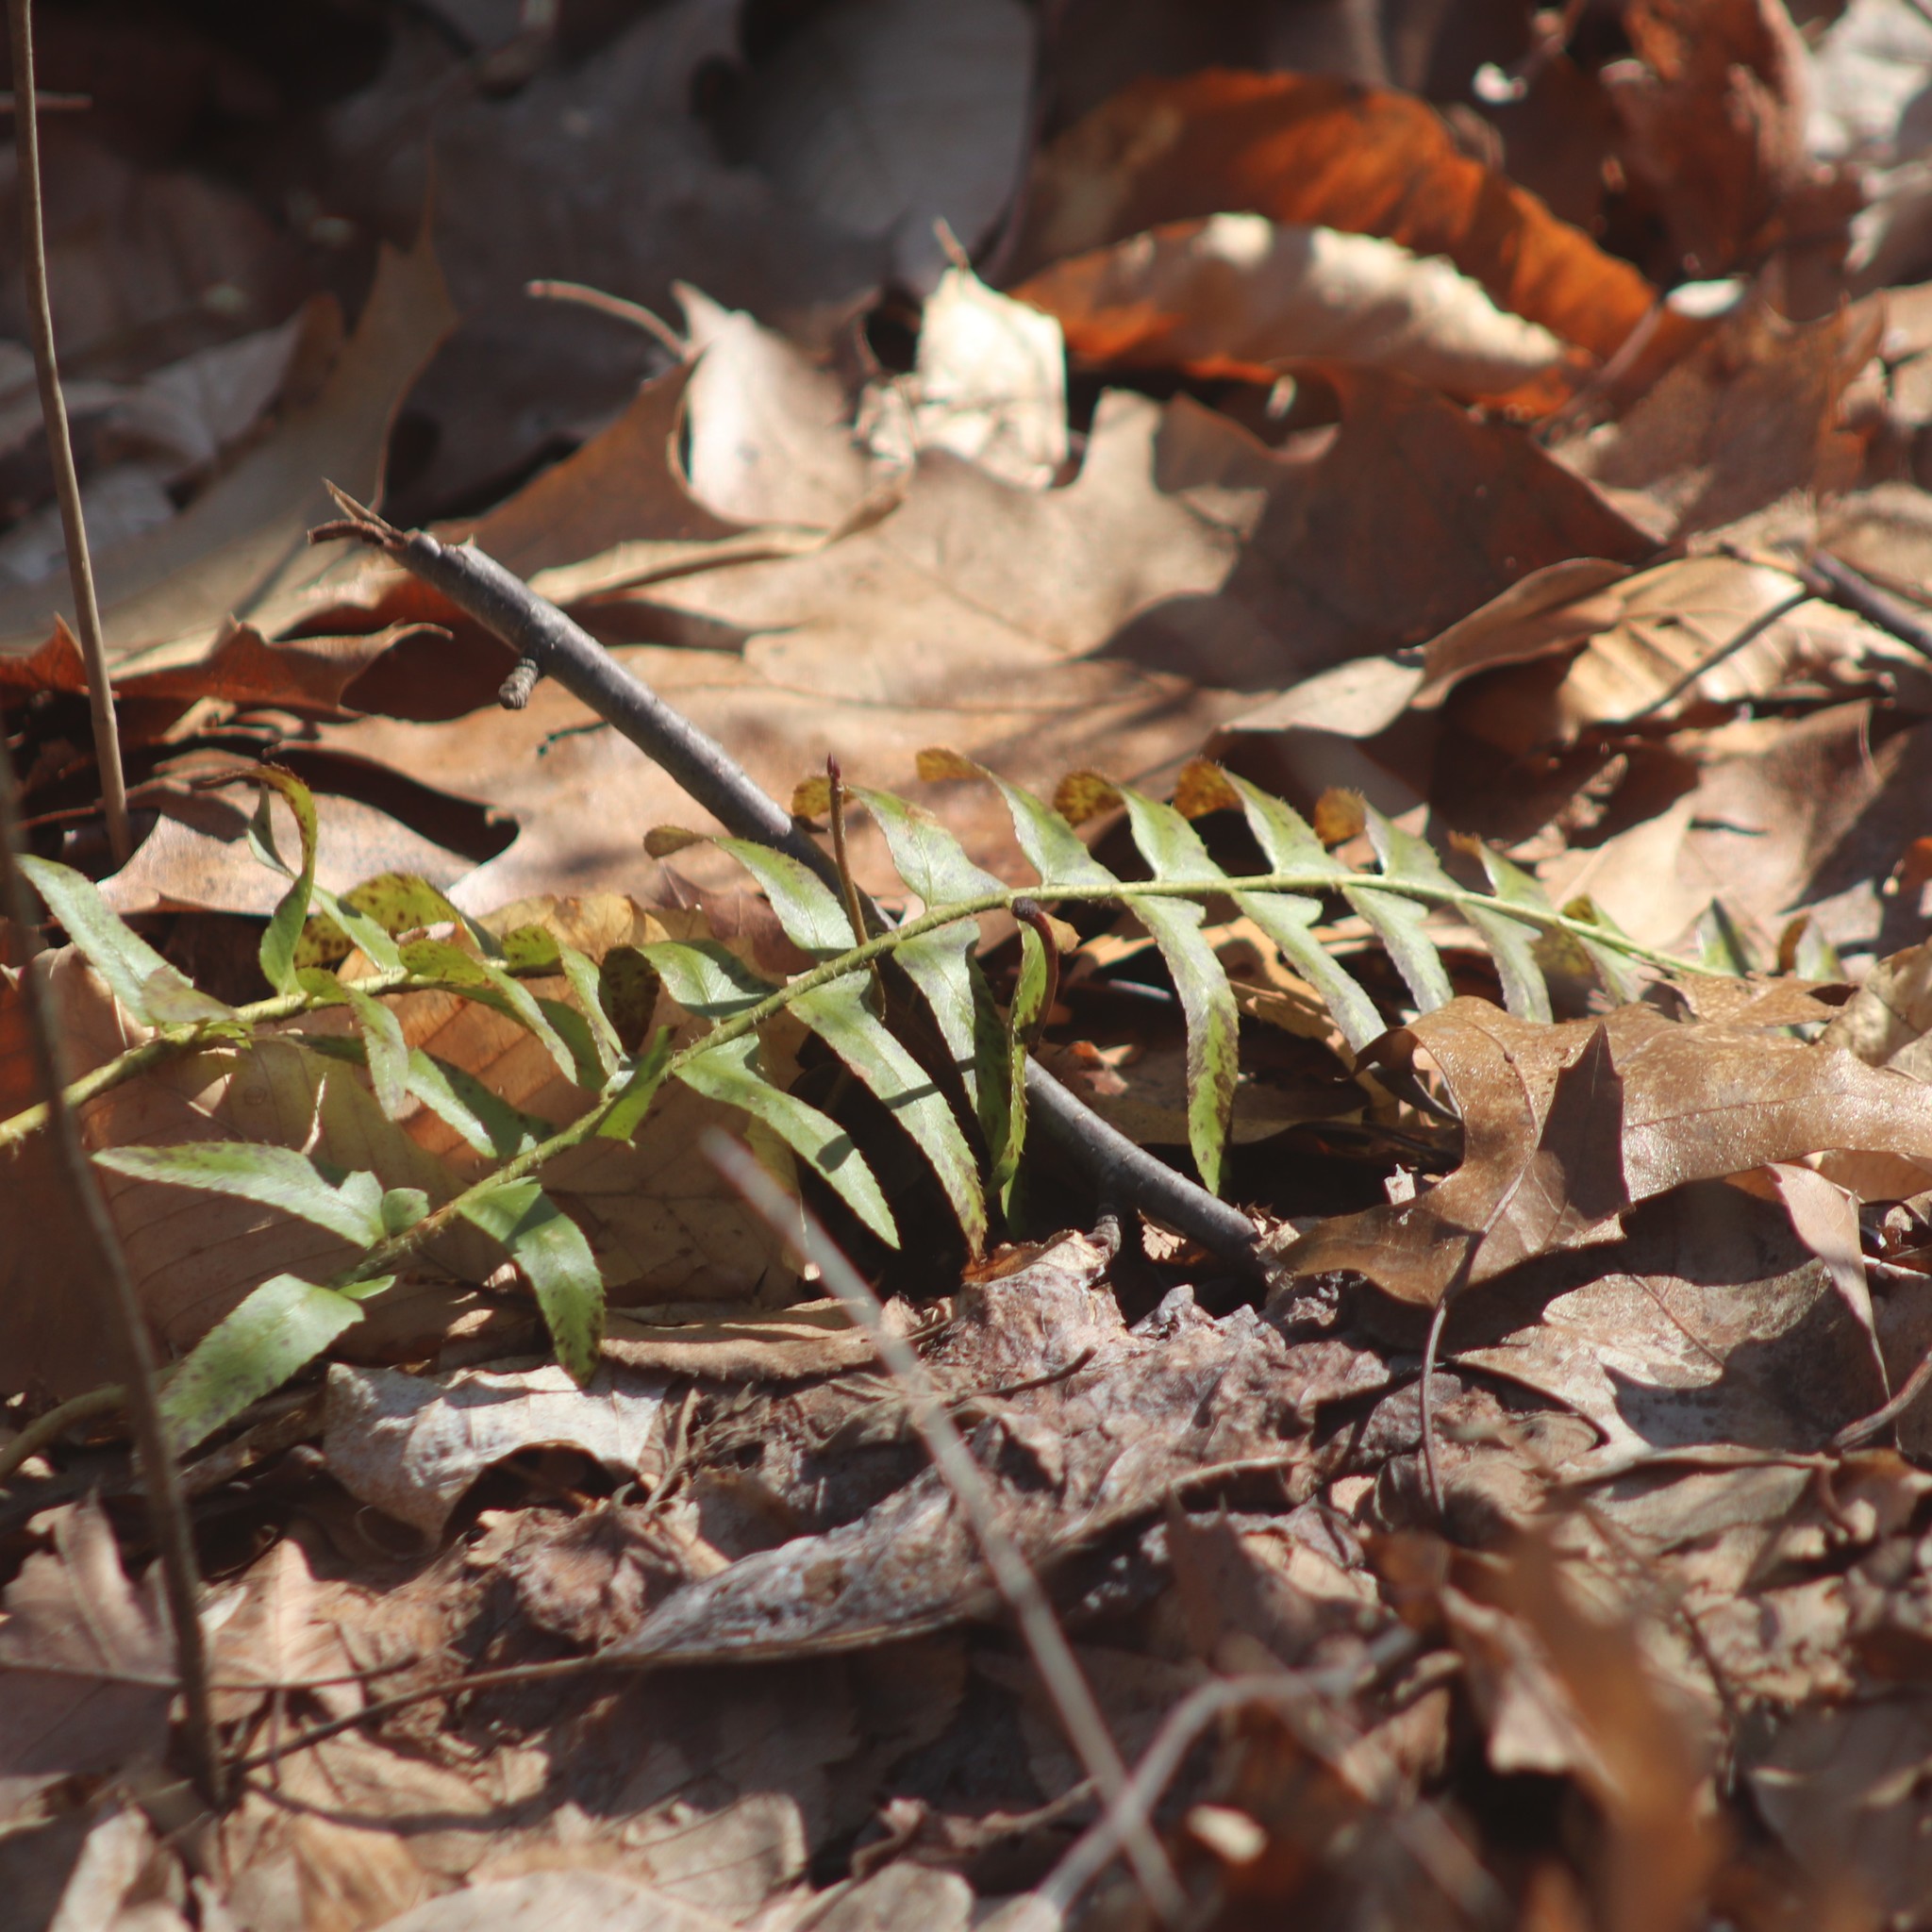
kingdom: Plantae
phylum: Tracheophyta
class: Polypodiopsida
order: Polypodiales
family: Dryopteridaceae
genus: Polystichum
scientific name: Polystichum acrostichoides
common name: Christmas fern
